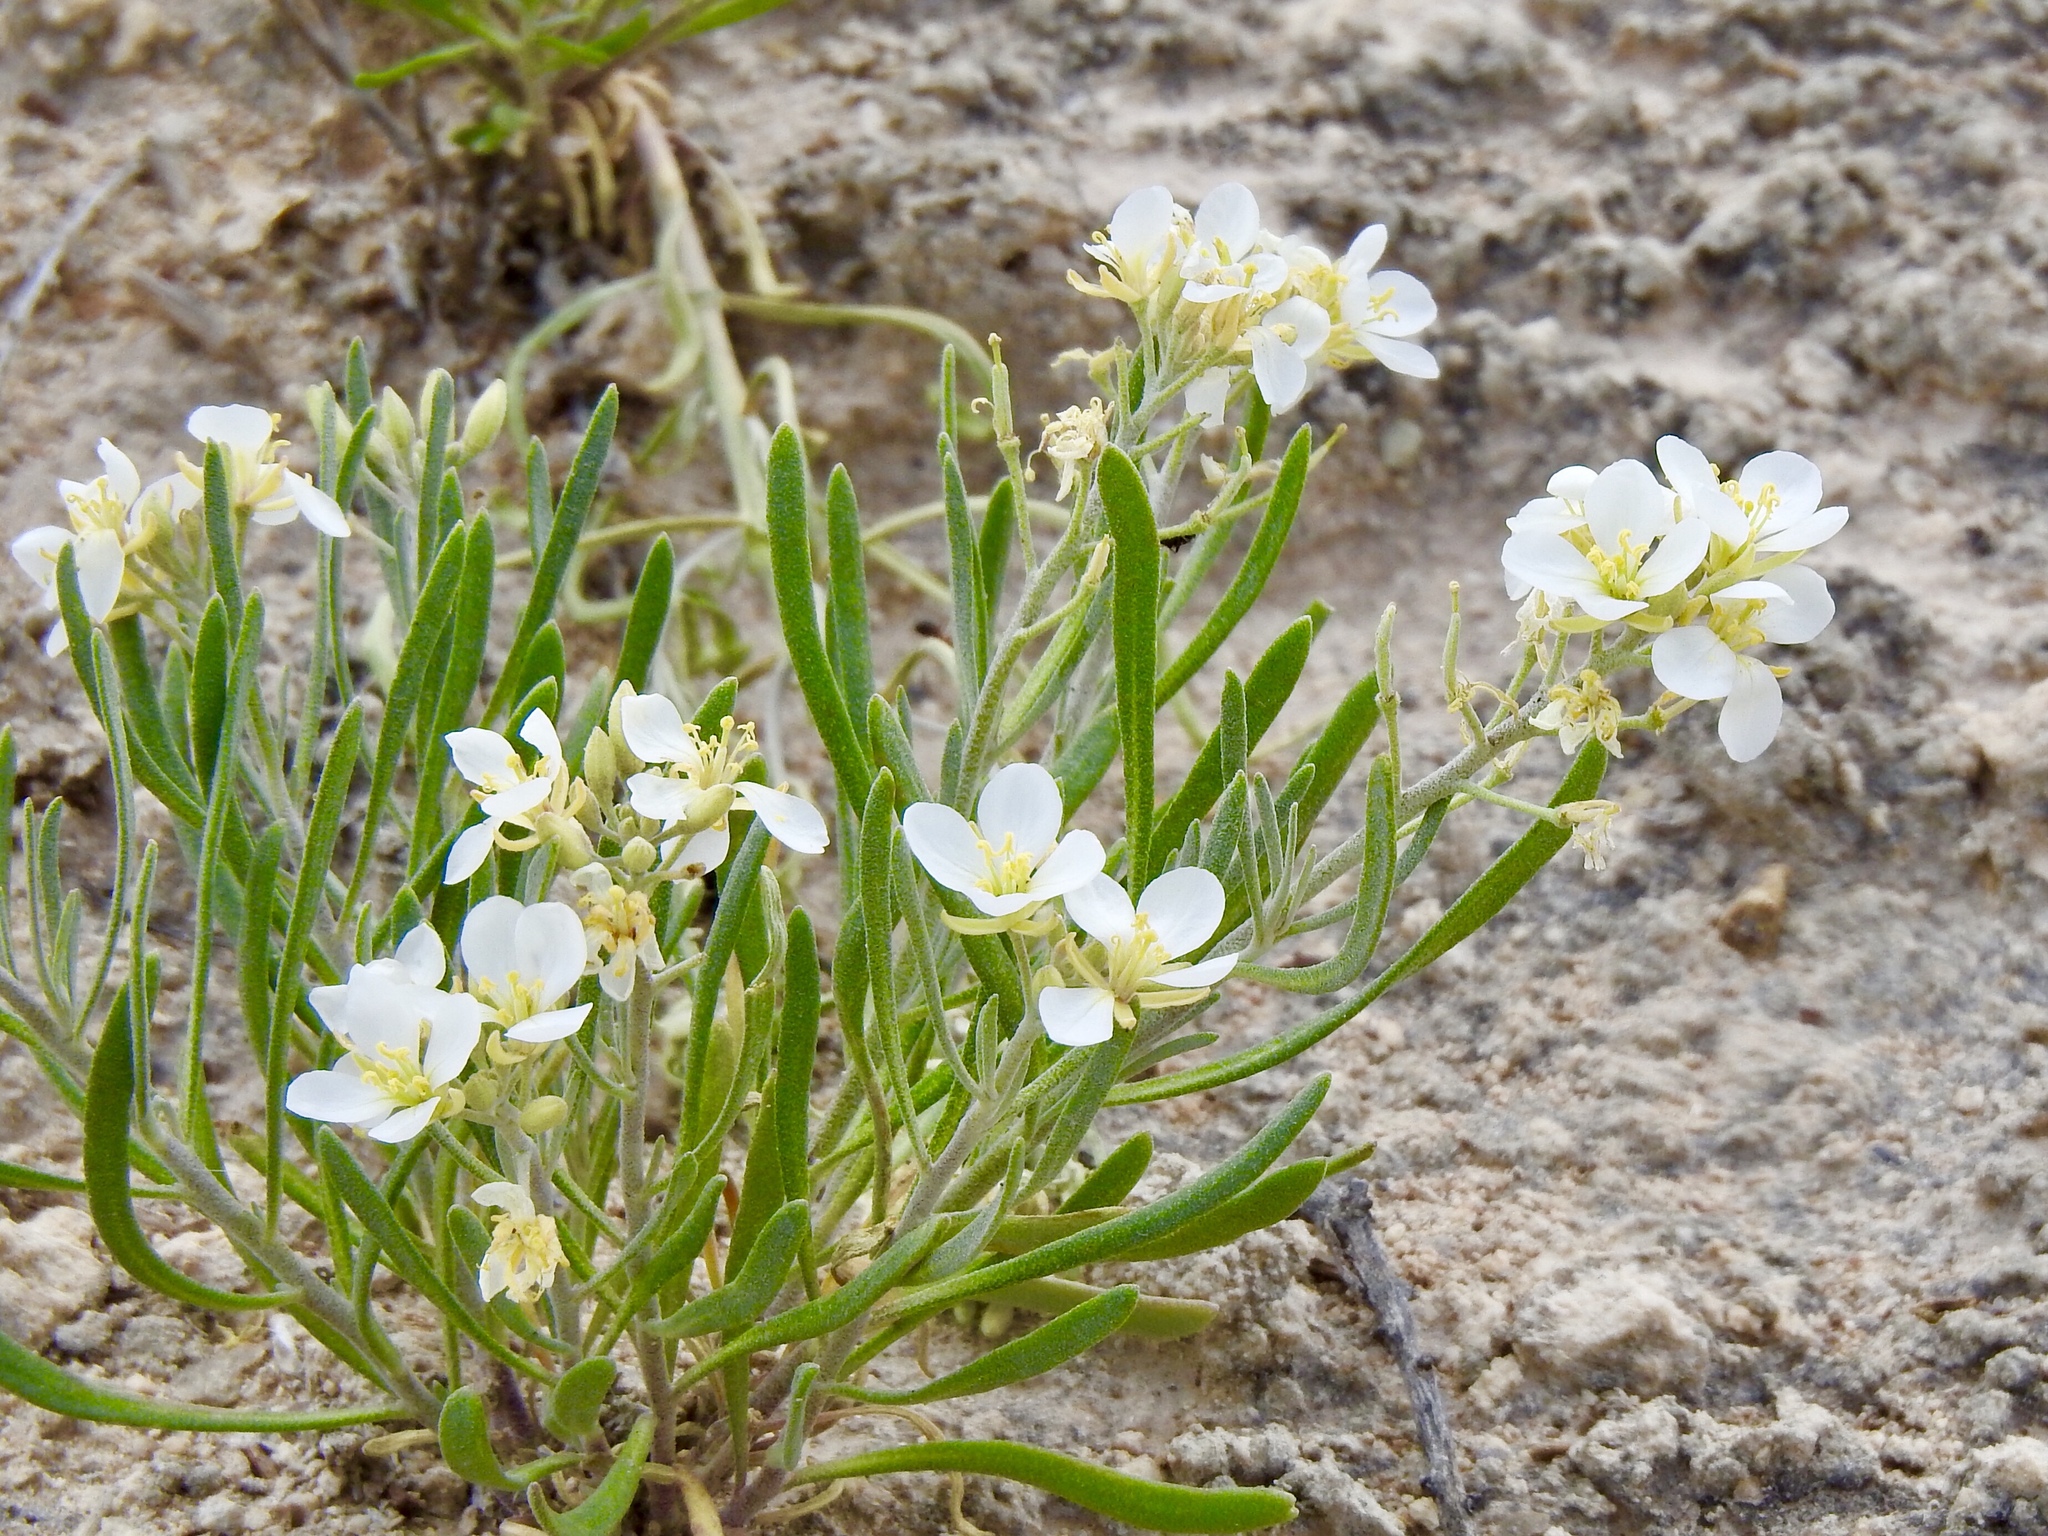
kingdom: Plantae
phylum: Tracheophyta
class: Magnoliopsida
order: Brassicales
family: Brassicaceae
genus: Nerisyrenia
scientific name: Nerisyrenia linearifolia
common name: White sands fan mustard
